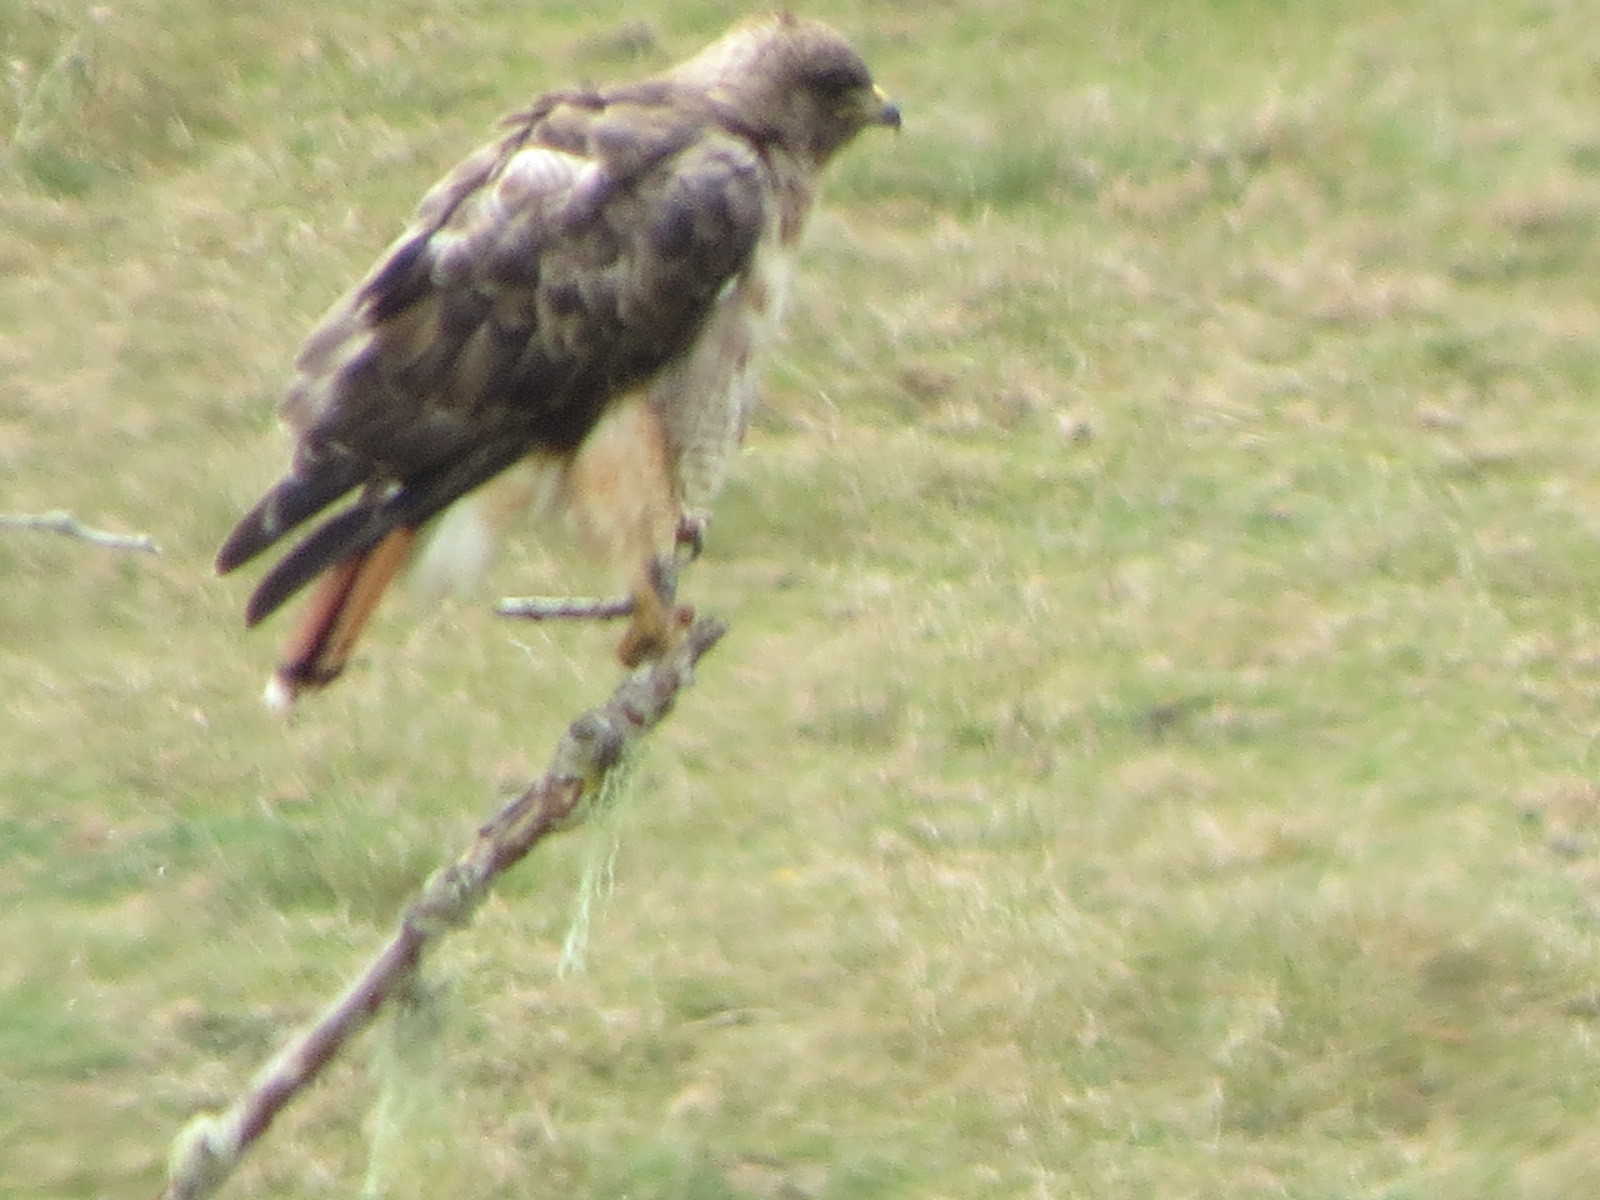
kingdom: Animalia
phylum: Chordata
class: Aves
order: Accipitriformes
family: Accipitridae
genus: Buteo
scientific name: Buteo jamaicensis
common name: Red-tailed hawk
